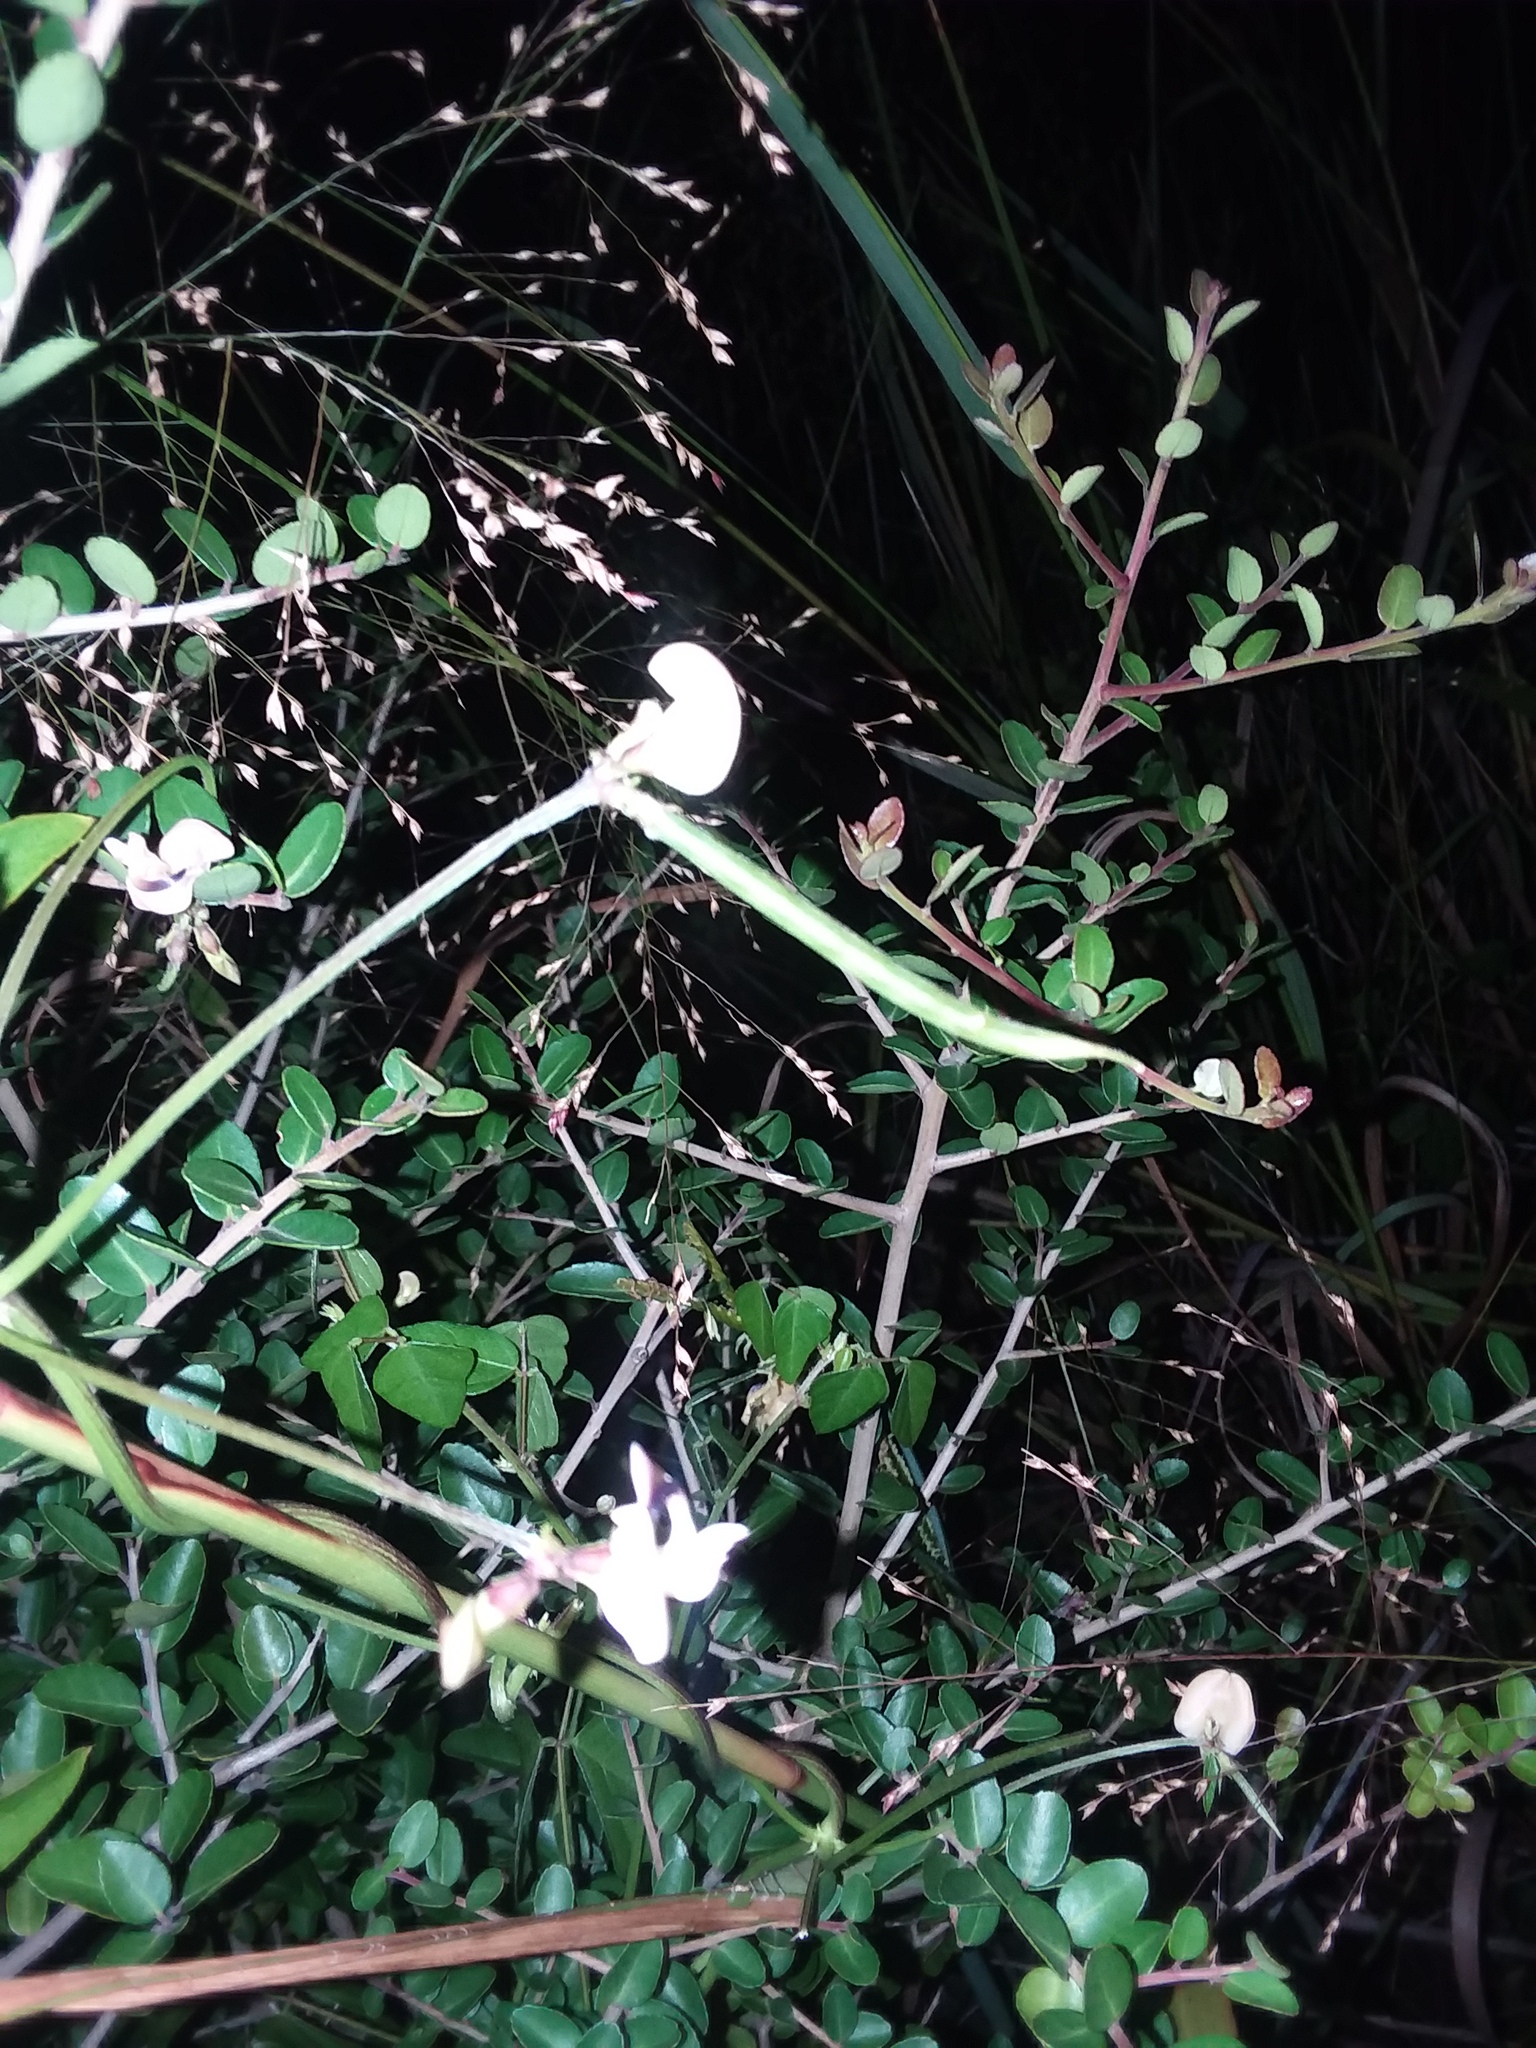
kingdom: Plantae
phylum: Tracheophyta
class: Magnoliopsida
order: Fabales
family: Fabaceae
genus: Strophostyles
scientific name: Strophostyles helvola
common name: Trailing wild bean
